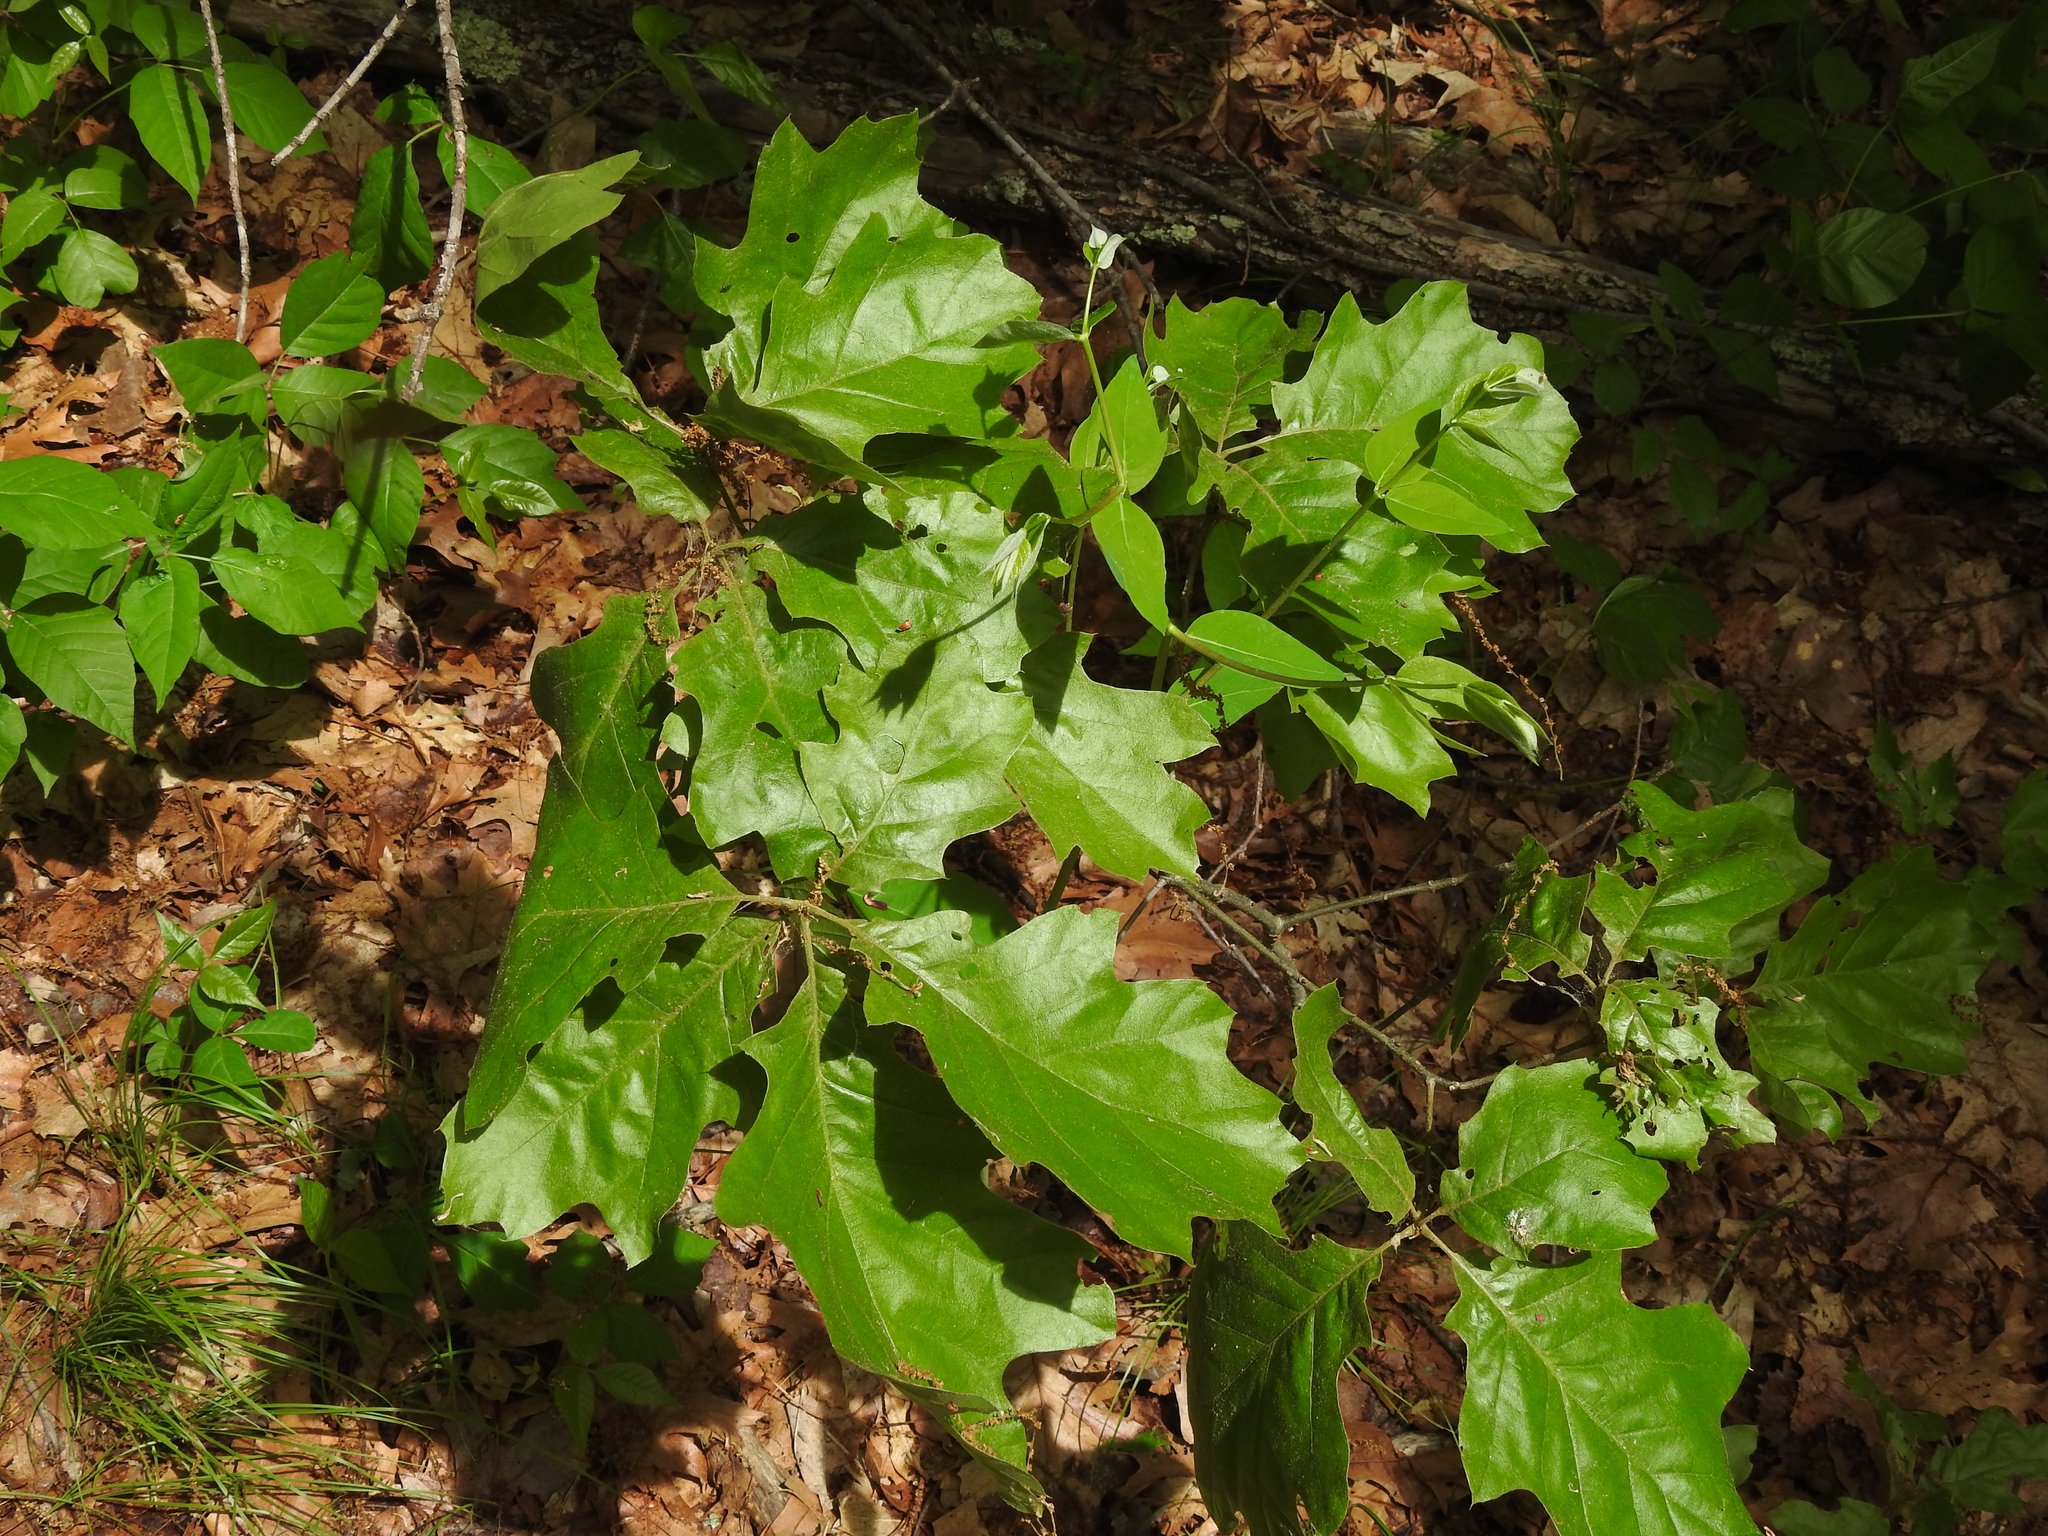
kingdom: Plantae
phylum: Tracheophyta
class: Magnoliopsida
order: Fagales
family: Fagaceae
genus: Quercus
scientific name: Quercus velutina
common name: Black oak
